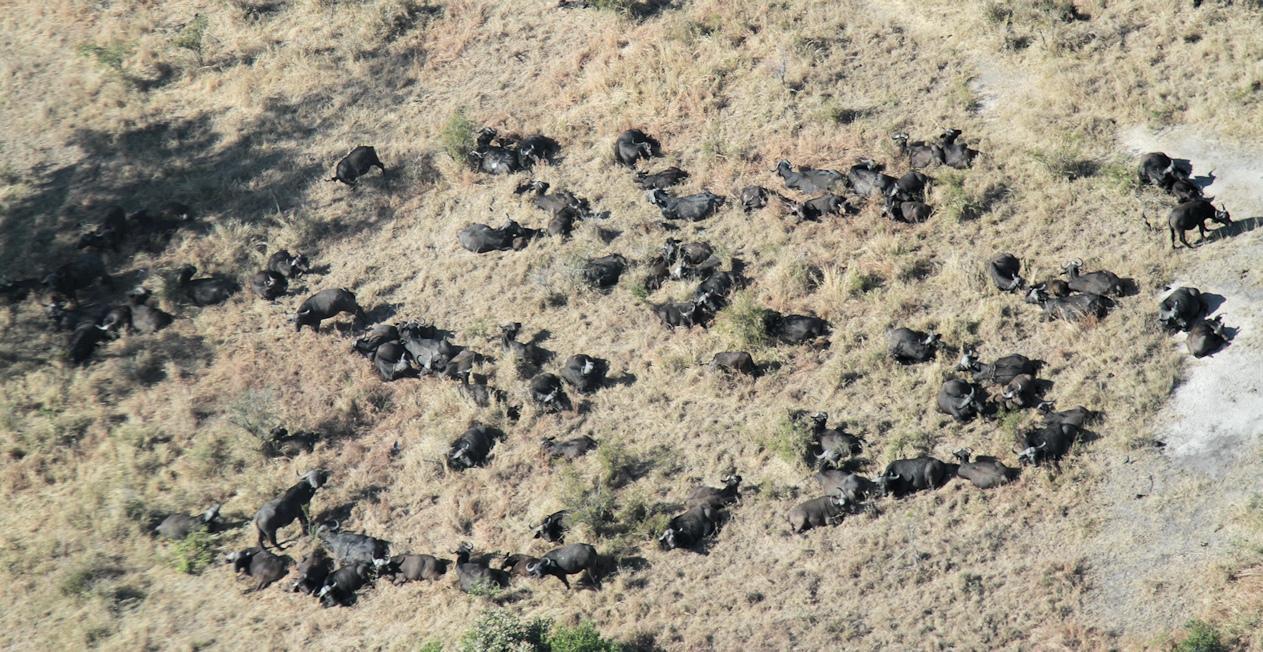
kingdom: Animalia
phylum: Chordata
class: Mammalia
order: Artiodactyla
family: Bovidae
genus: Syncerus
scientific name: Syncerus caffer
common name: African buffalo
